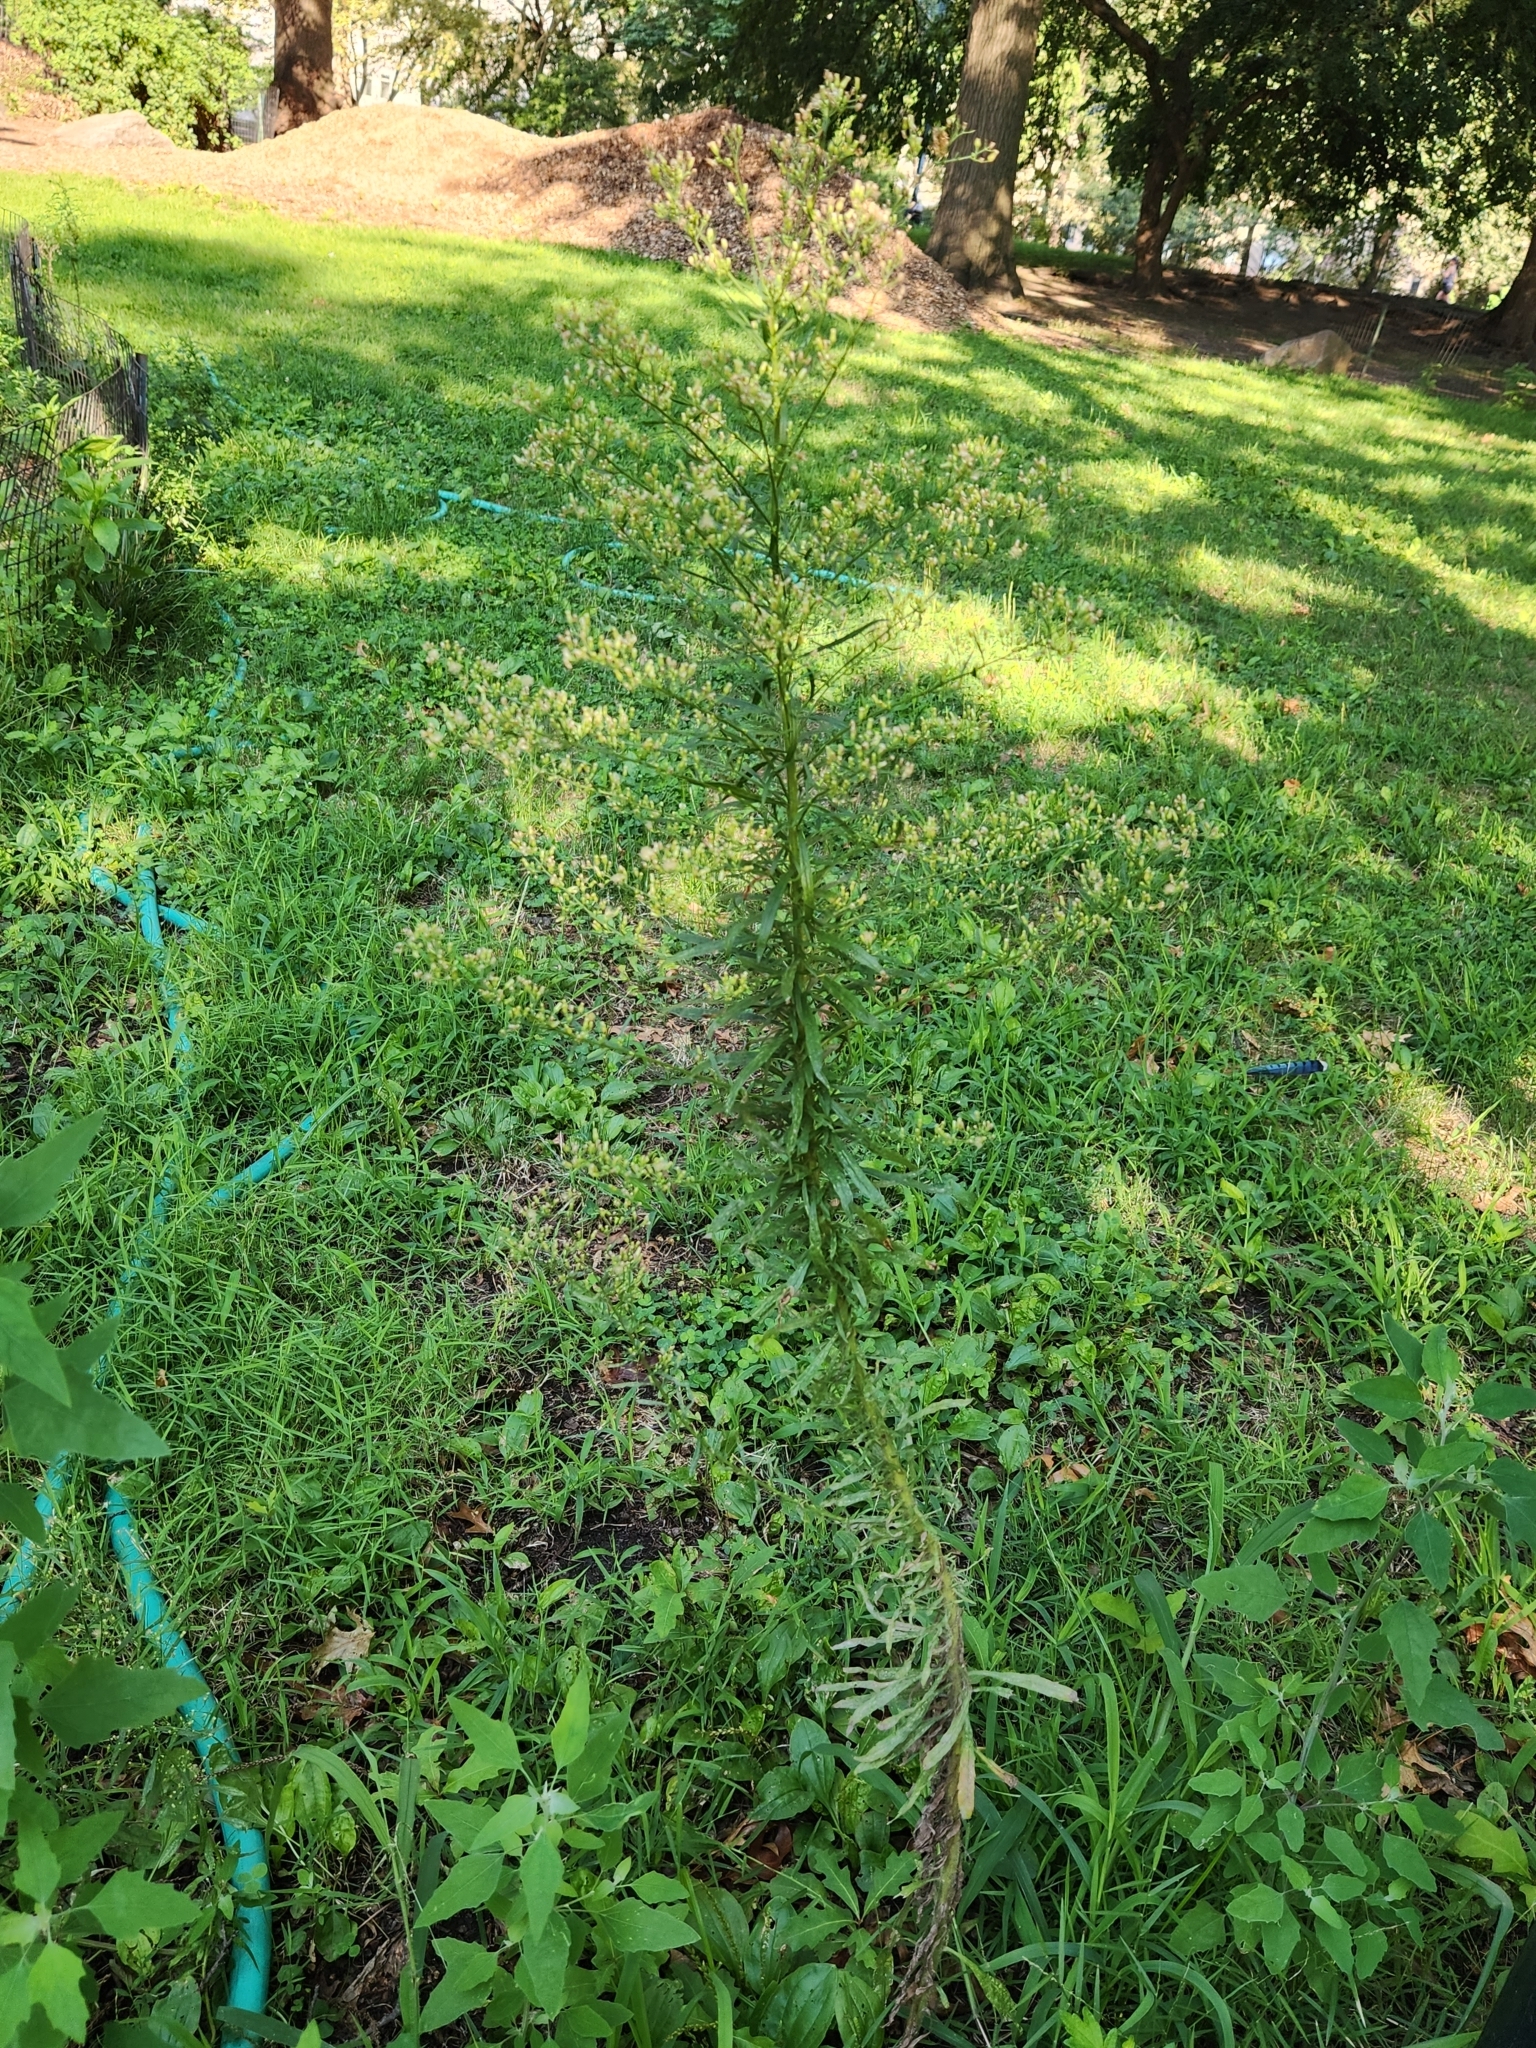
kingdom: Plantae
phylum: Tracheophyta
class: Magnoliopsida
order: Asterales
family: Asteraceae
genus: Erigeron
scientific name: Erigeron canadensis
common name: Canadian fleabane
